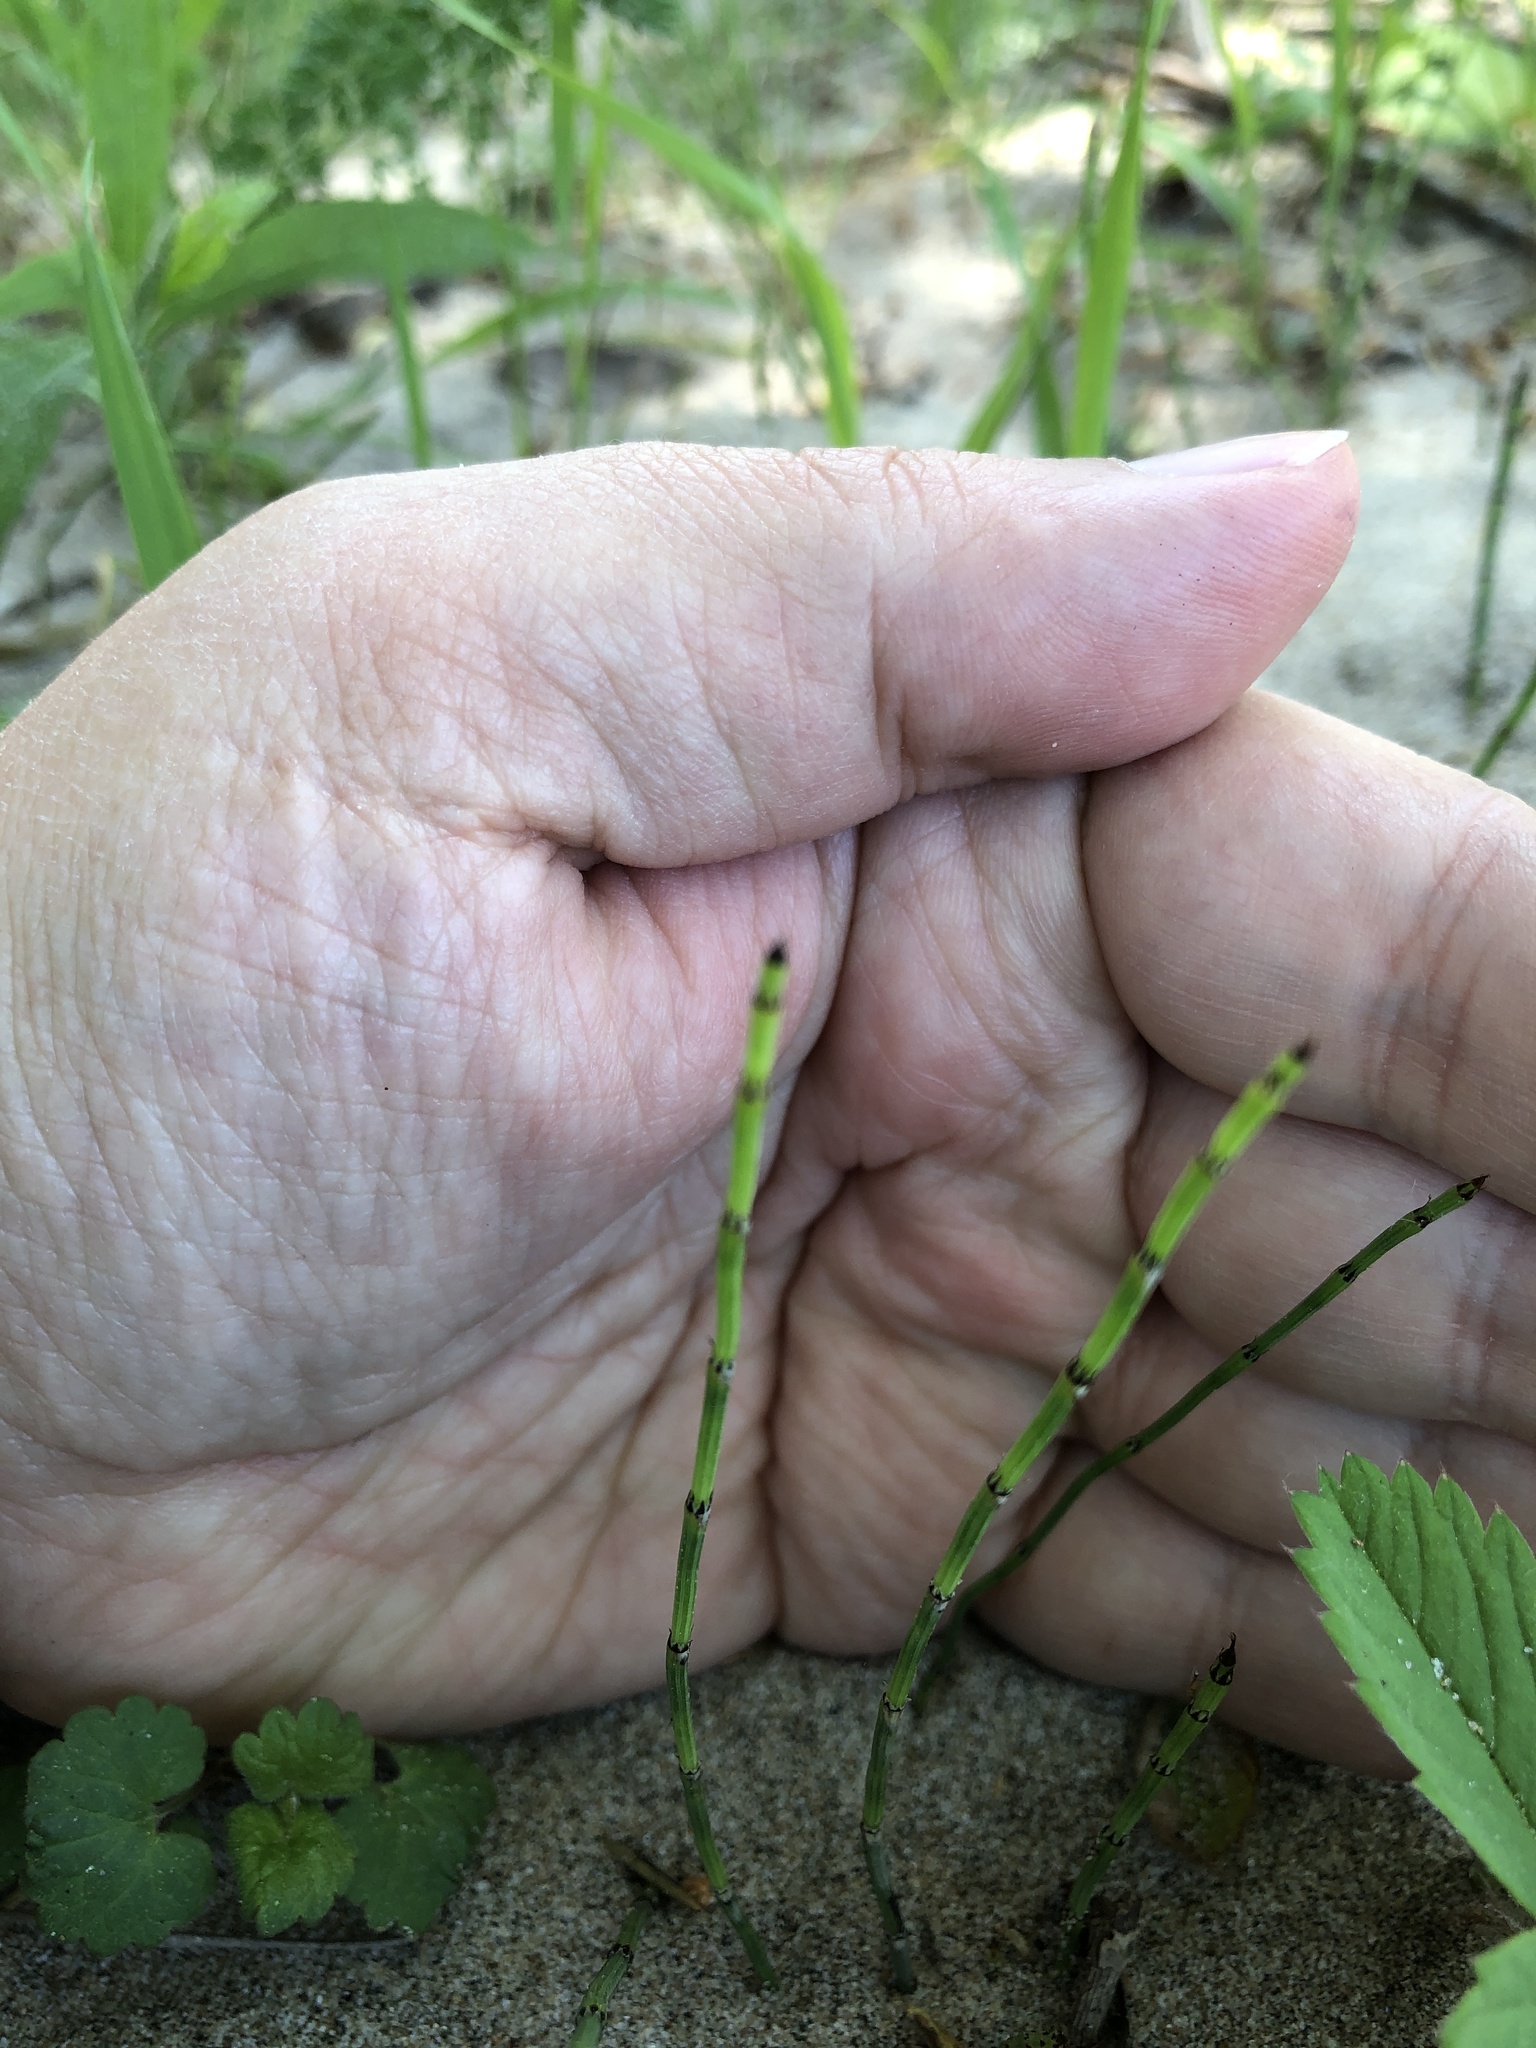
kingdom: Plantae
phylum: Tracheophyta
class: Polypodiopsida
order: Equisetales
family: Equisetaceae
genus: Equisetum
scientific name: Equisetum variegatum
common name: Variegated horsetail
